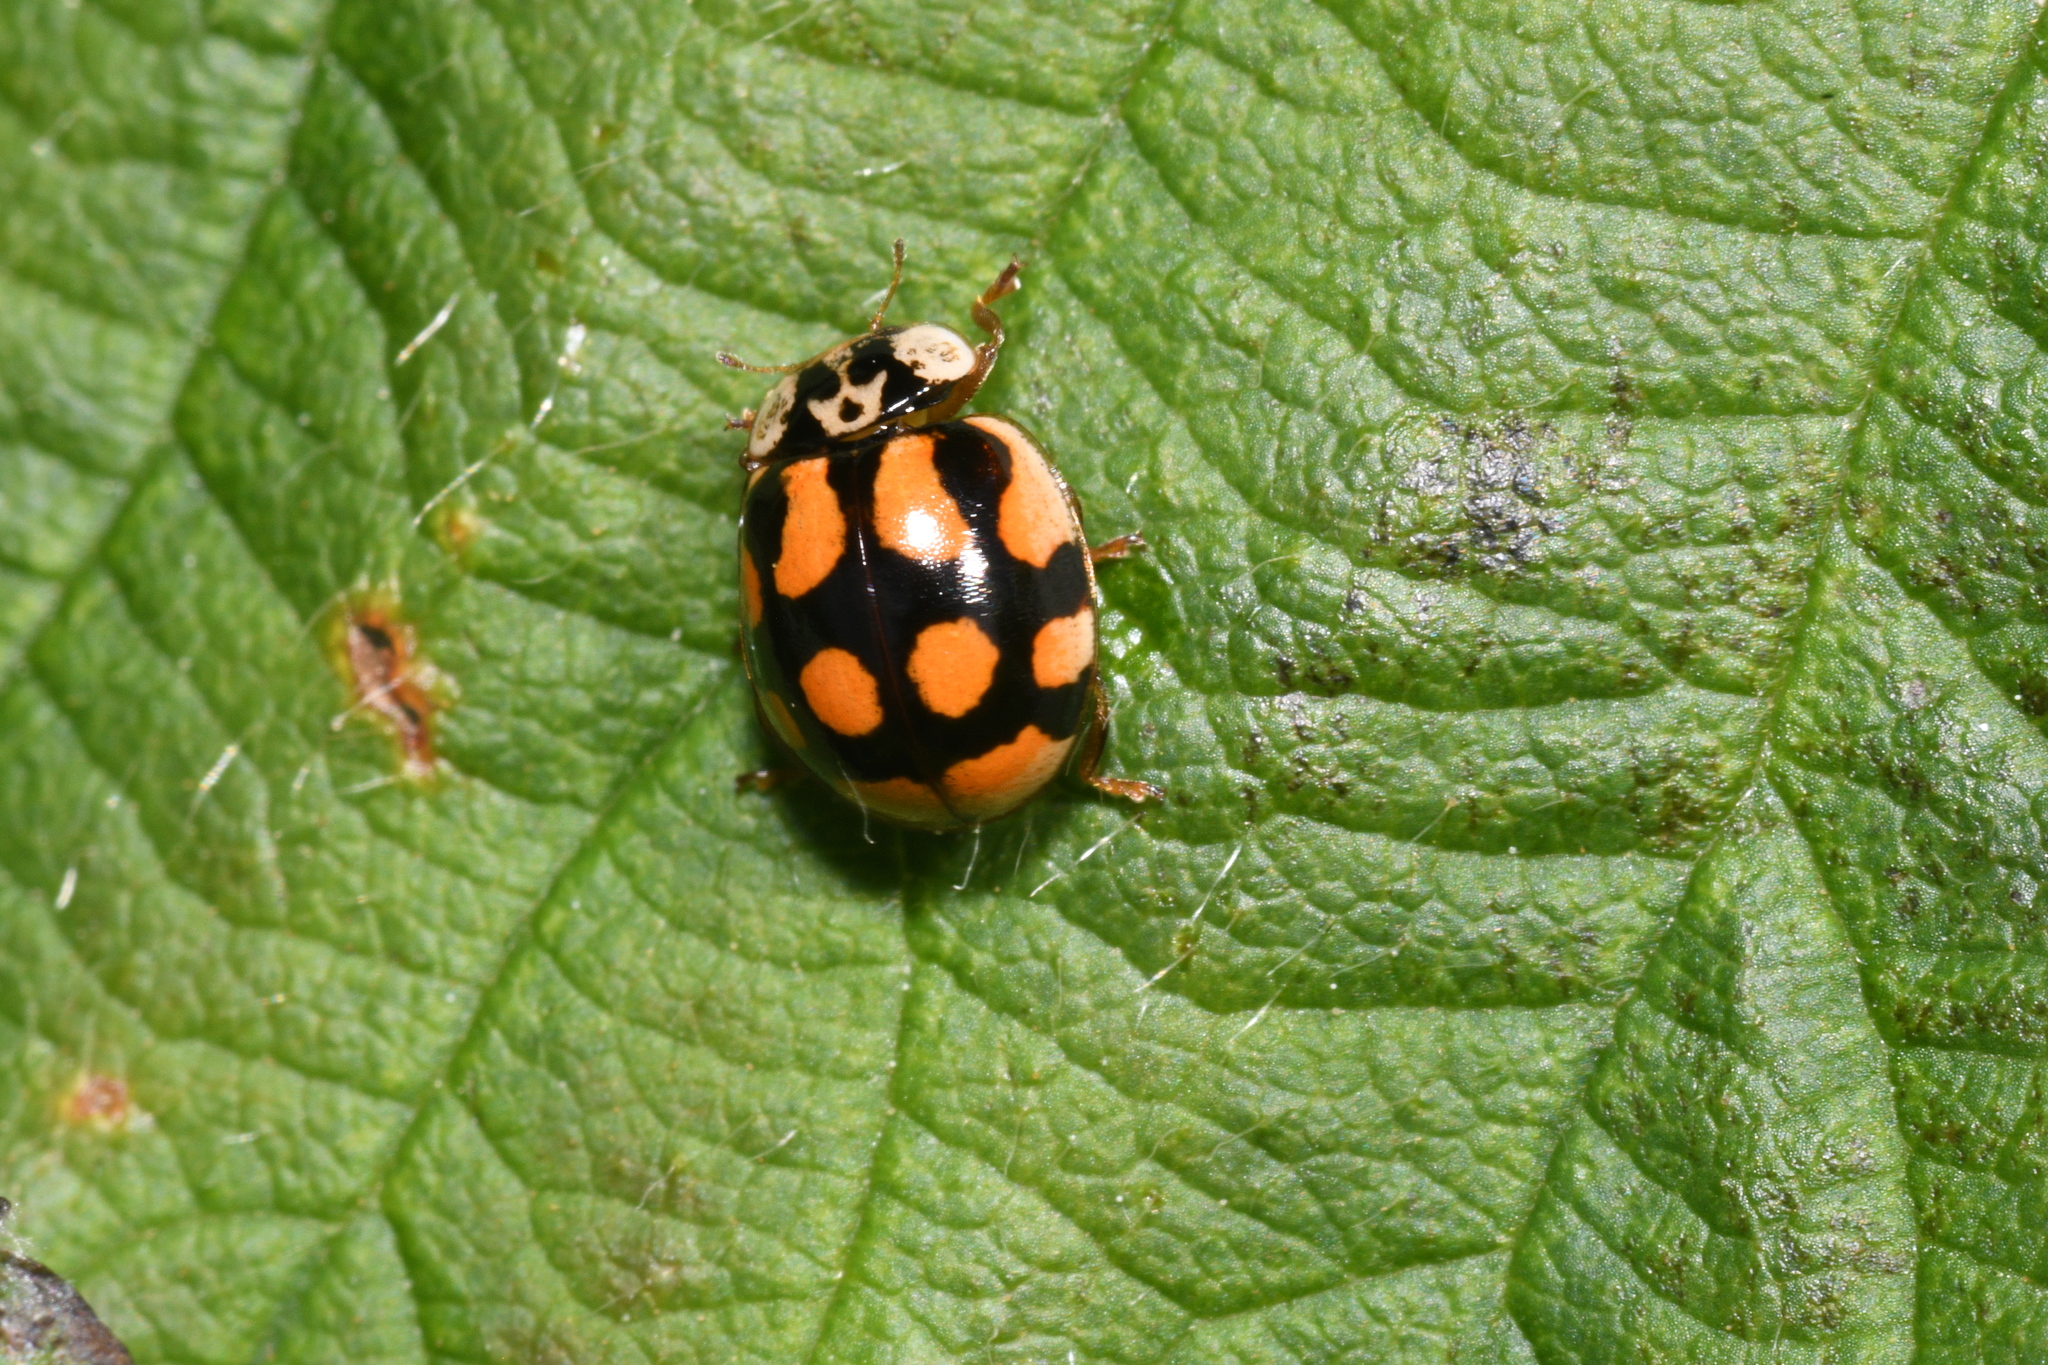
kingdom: Animalia
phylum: Arthropoda
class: Insecta
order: Coleoptera
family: Coccinellidae
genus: Adalia
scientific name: Adalia decempunctata
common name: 10-spot ladybird
